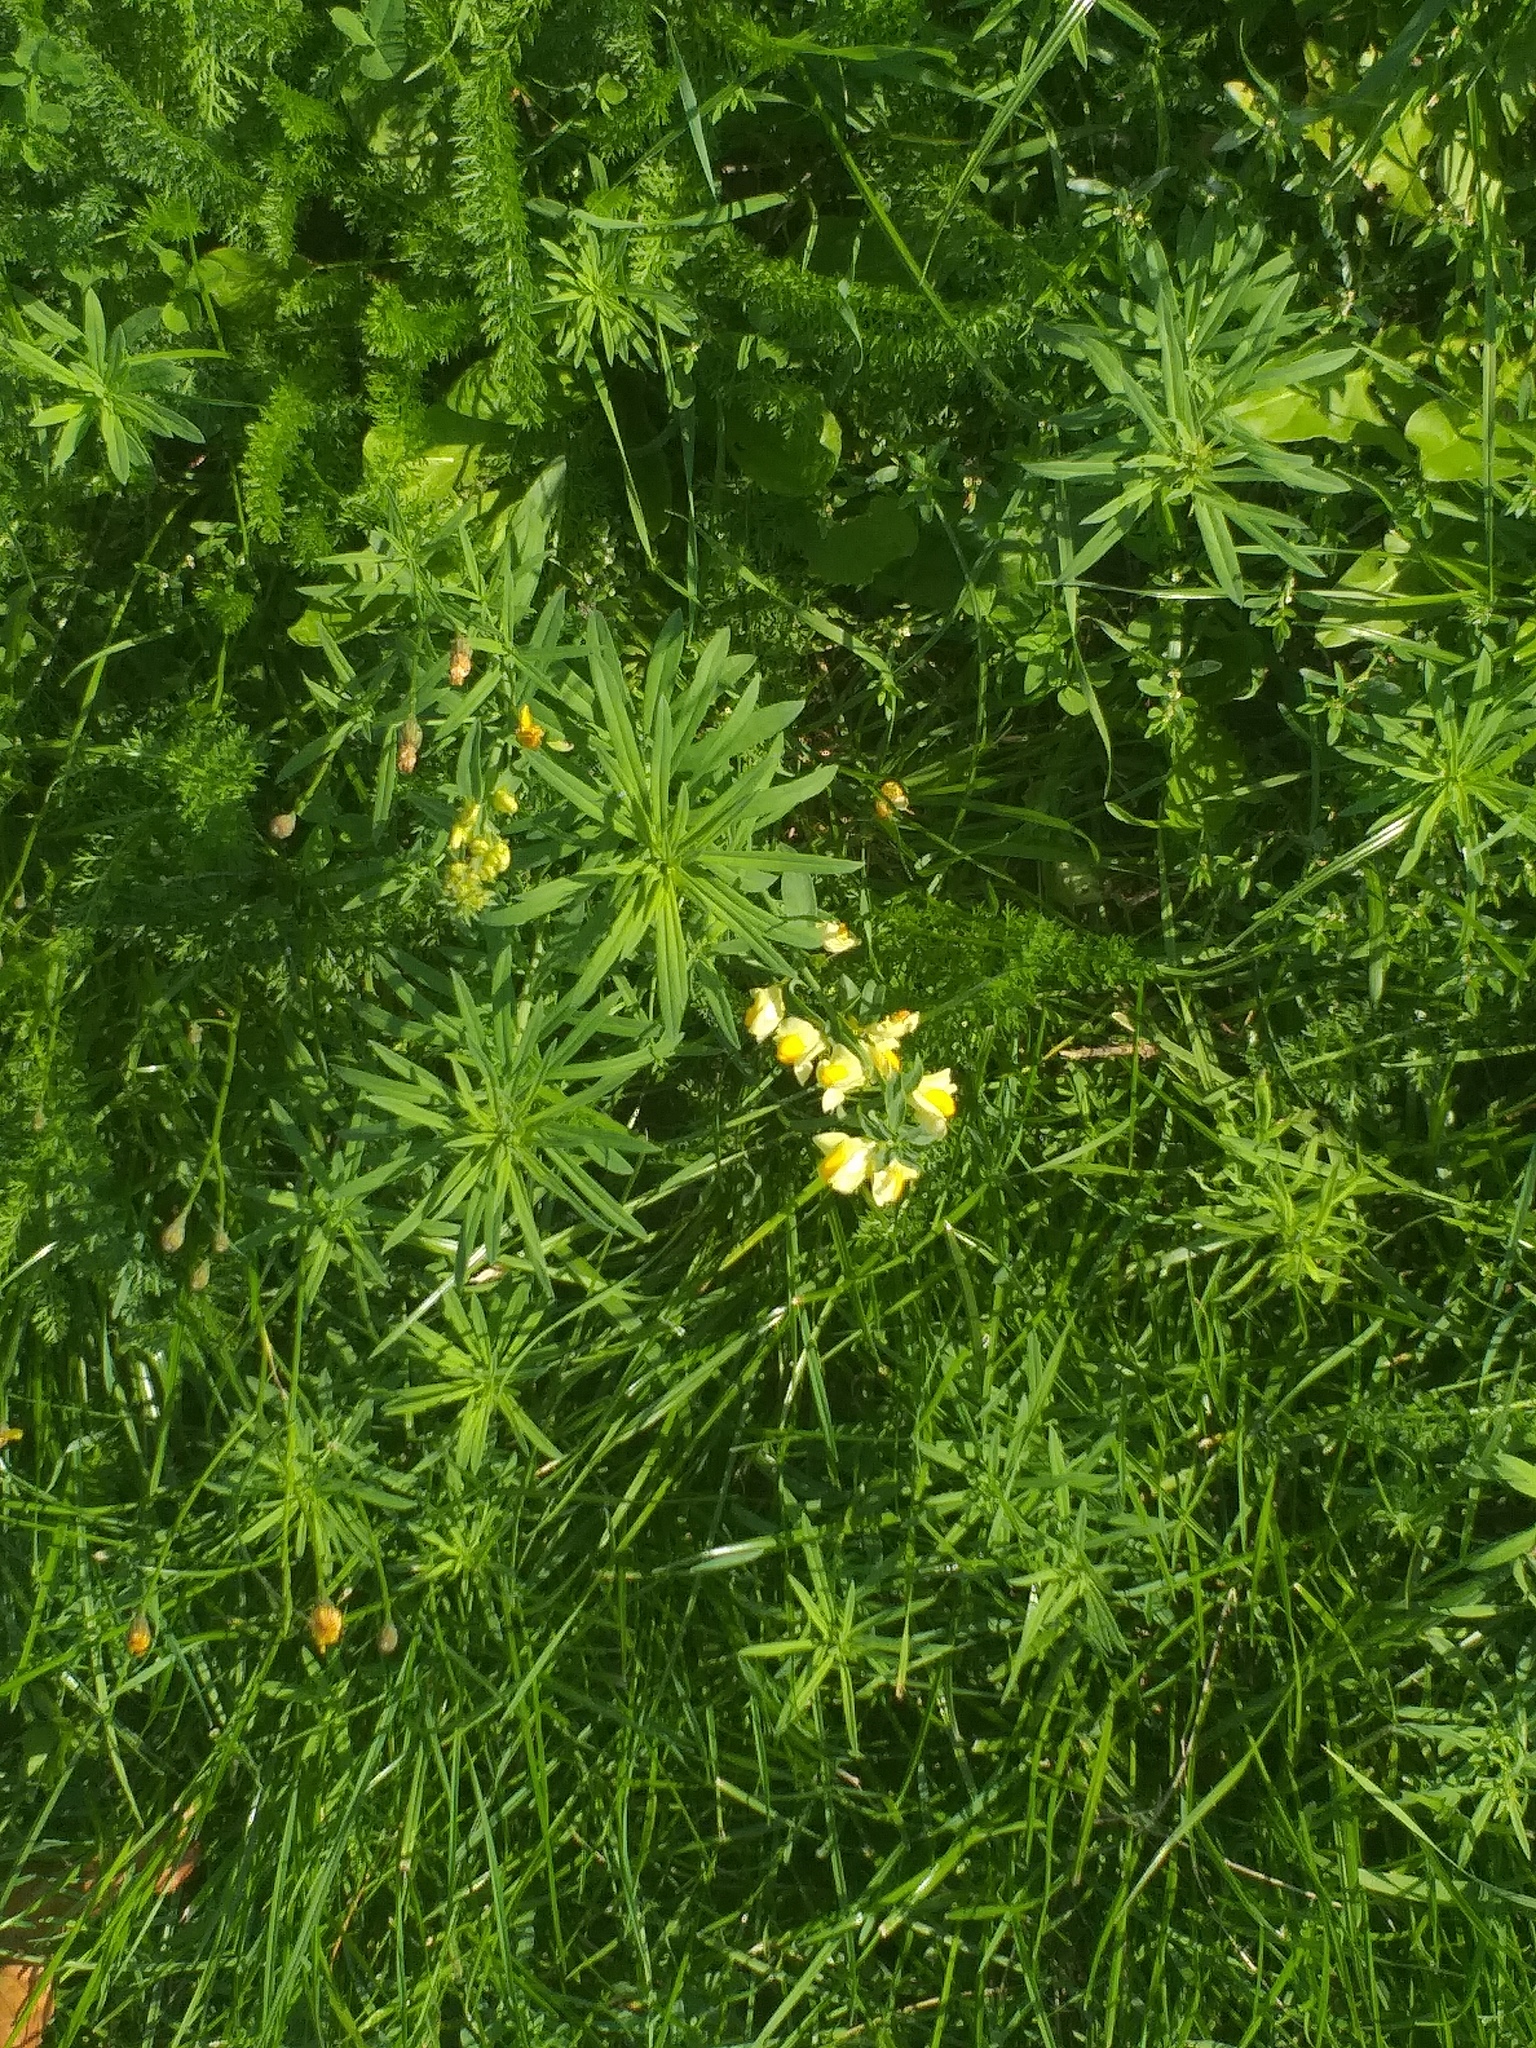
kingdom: Plantae
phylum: Tracheophyta
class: Magnoliopsida
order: Lamiales
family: Plantaginaceae
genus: Linaria
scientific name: Linaria vulgaris
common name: Butter and eggs
